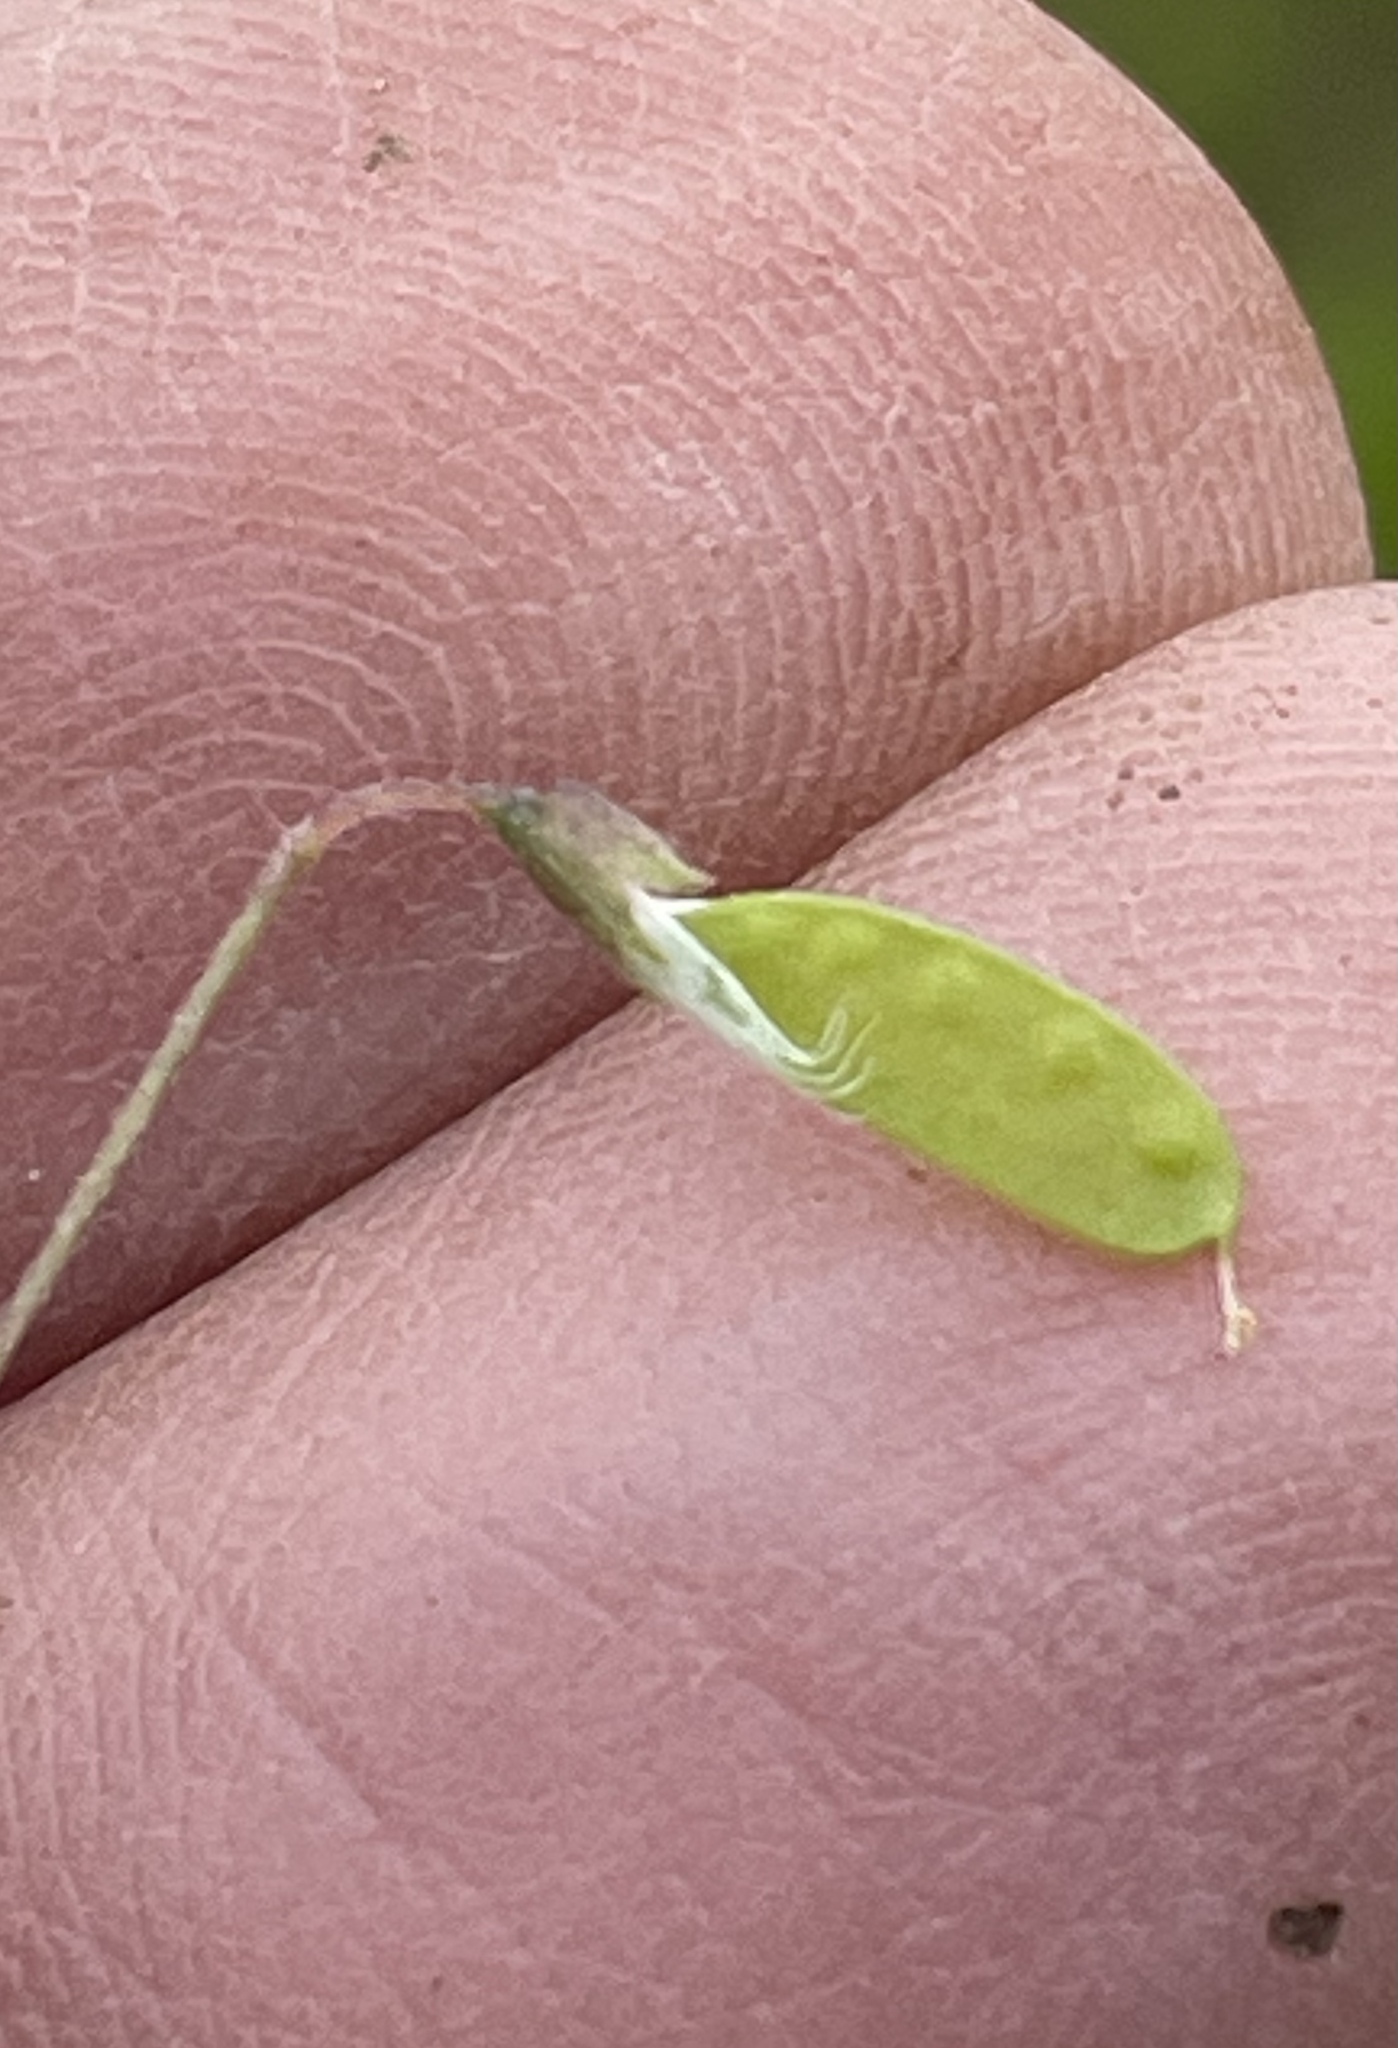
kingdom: Plantae
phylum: Tracheophyta
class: Magnoliopsida
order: Fabales
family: Fabaceae
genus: Vicia
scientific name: Vicia tetrasperma
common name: Smooth tare
